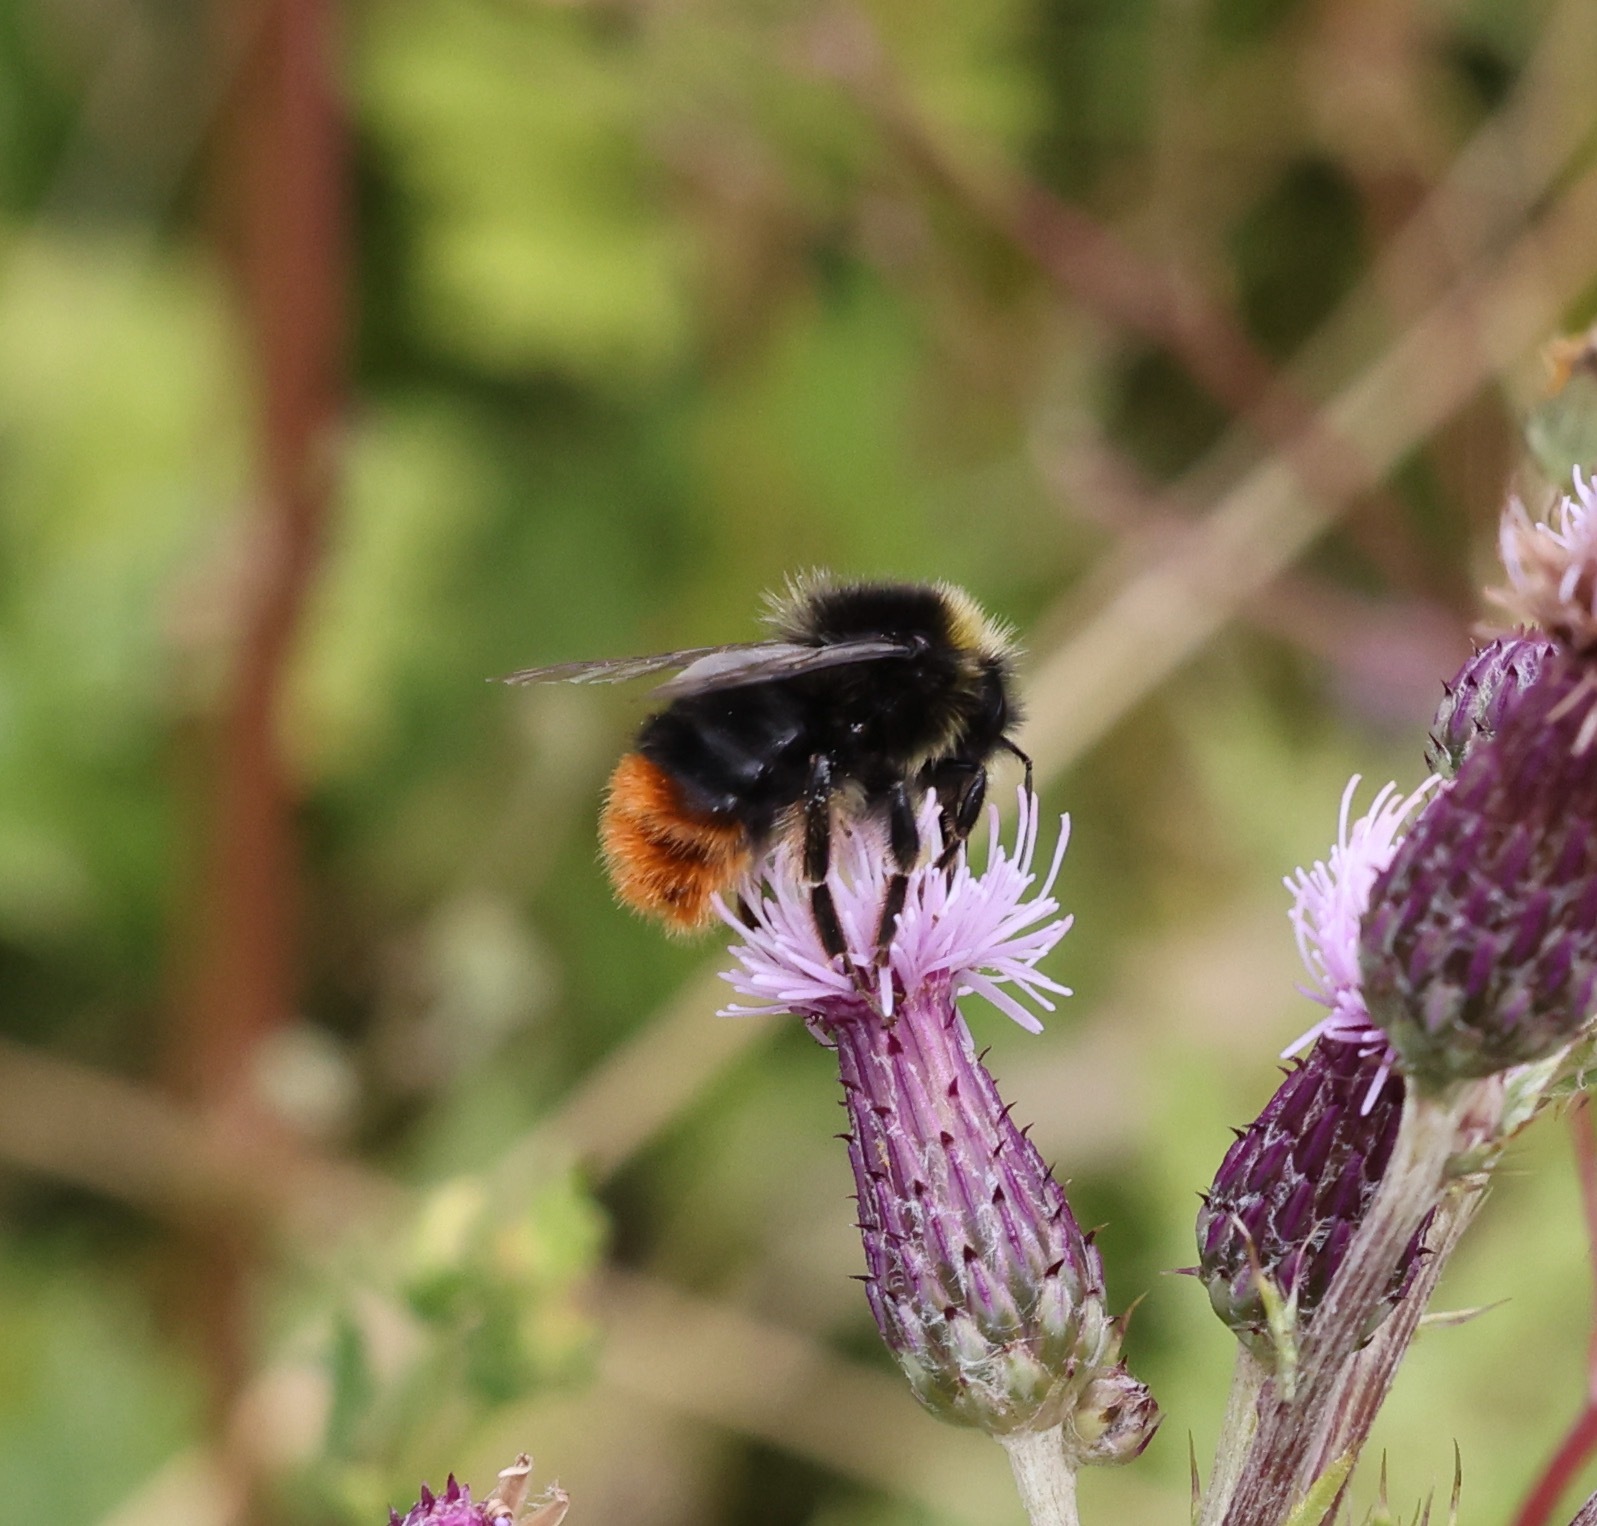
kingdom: Animalia
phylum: Arthropoda
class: Insecta
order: Hymenoptera
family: Apidae
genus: Bombus
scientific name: Bombus lapidarius
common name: Large red-tailed humble-bee
